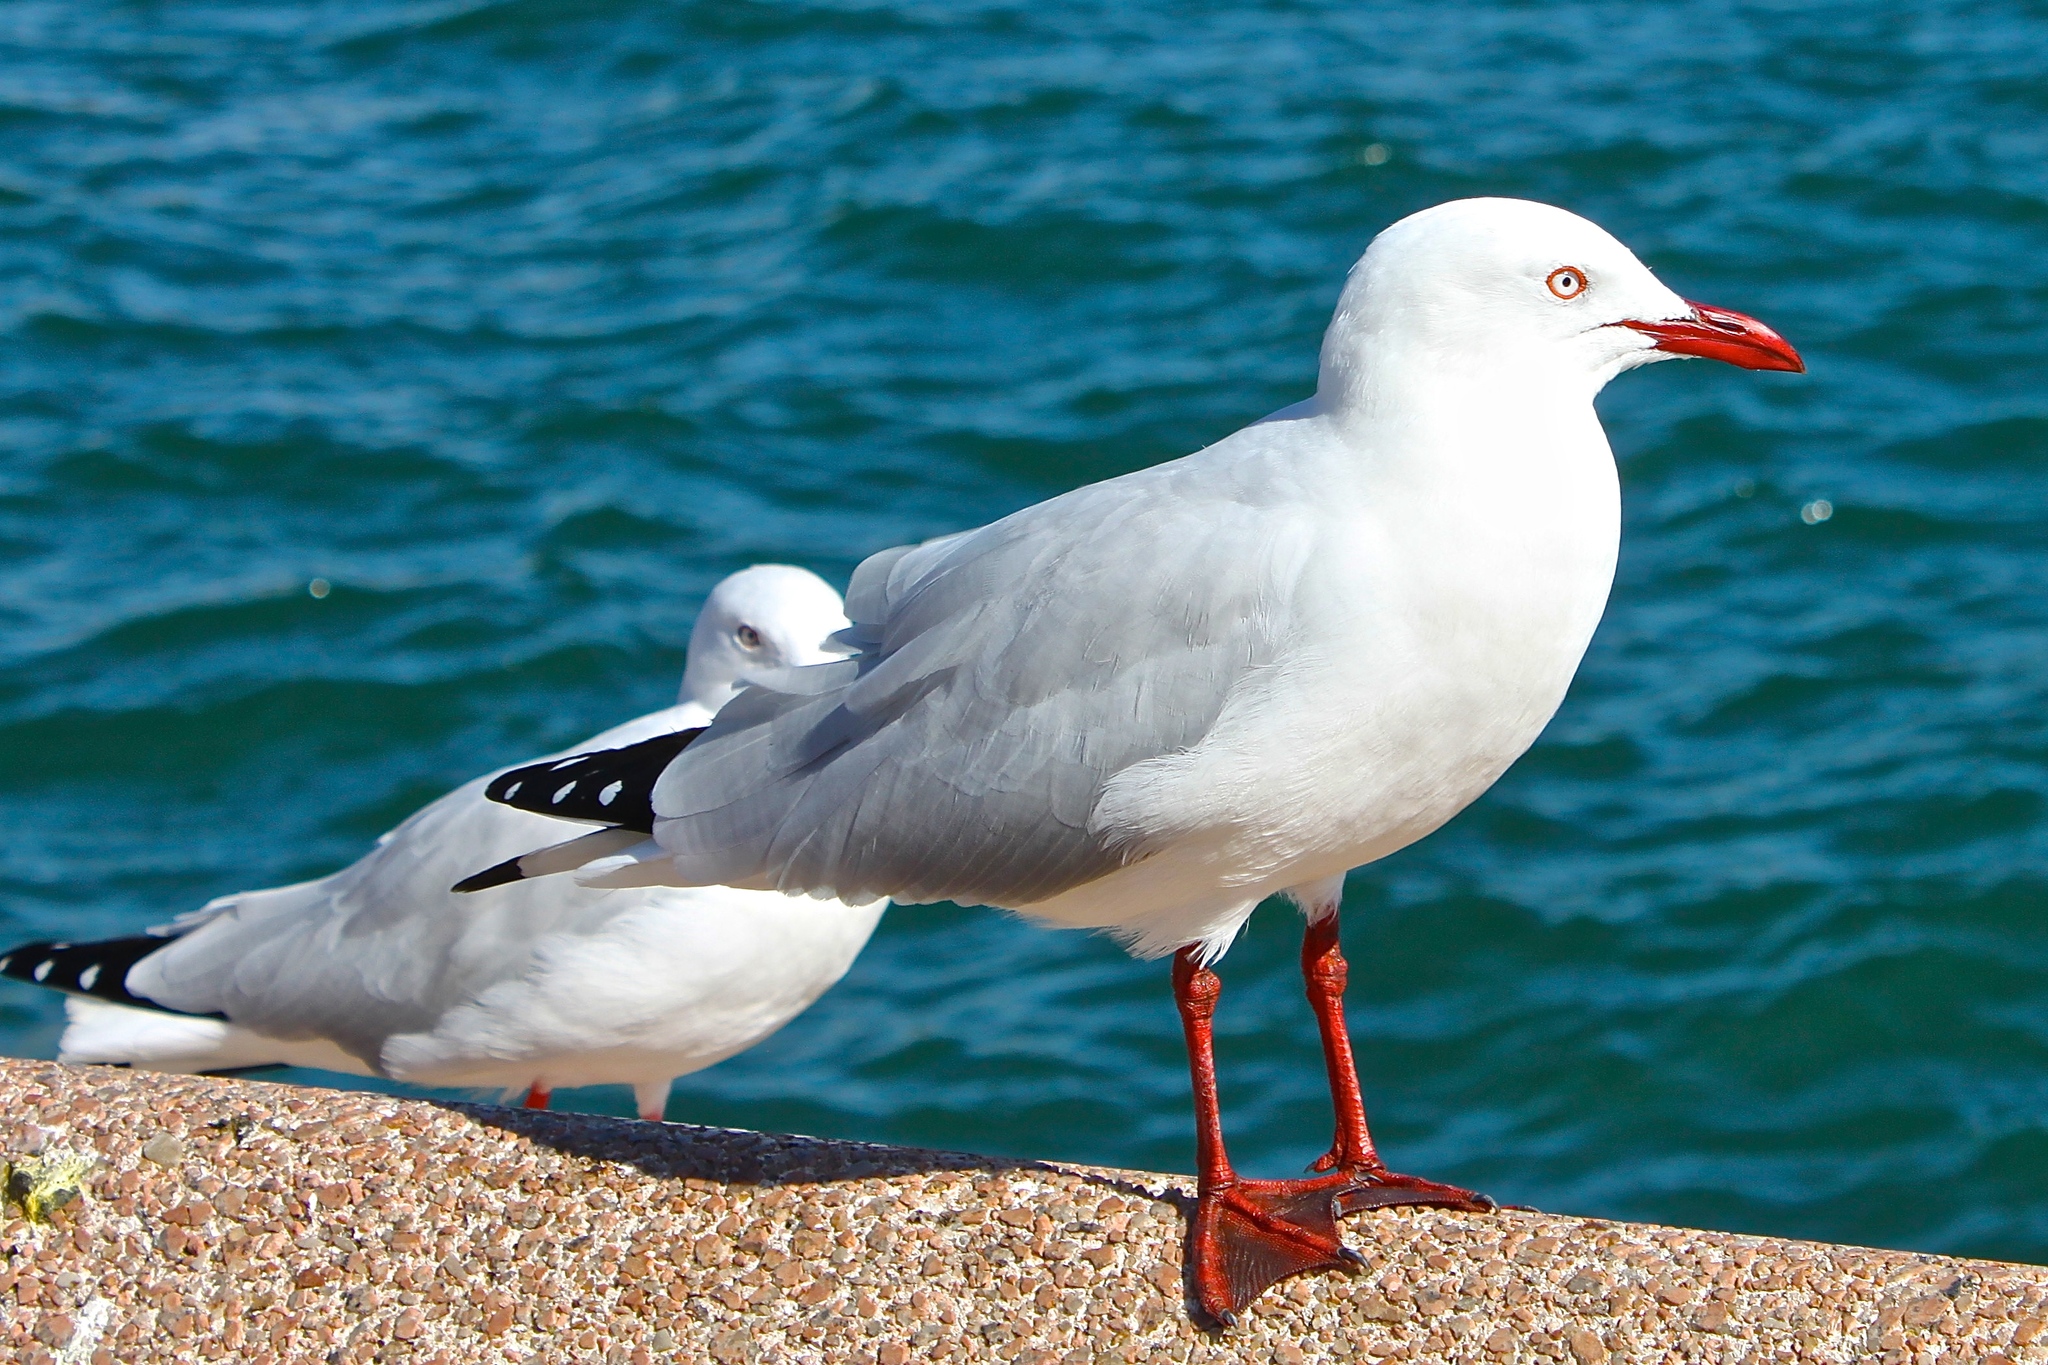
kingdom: Animalia
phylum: Chordata
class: Aves
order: Charadriiformes
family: Laridae
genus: Chroicocephalus
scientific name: Chroicocephalus novaehollandiae
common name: Silver gull
